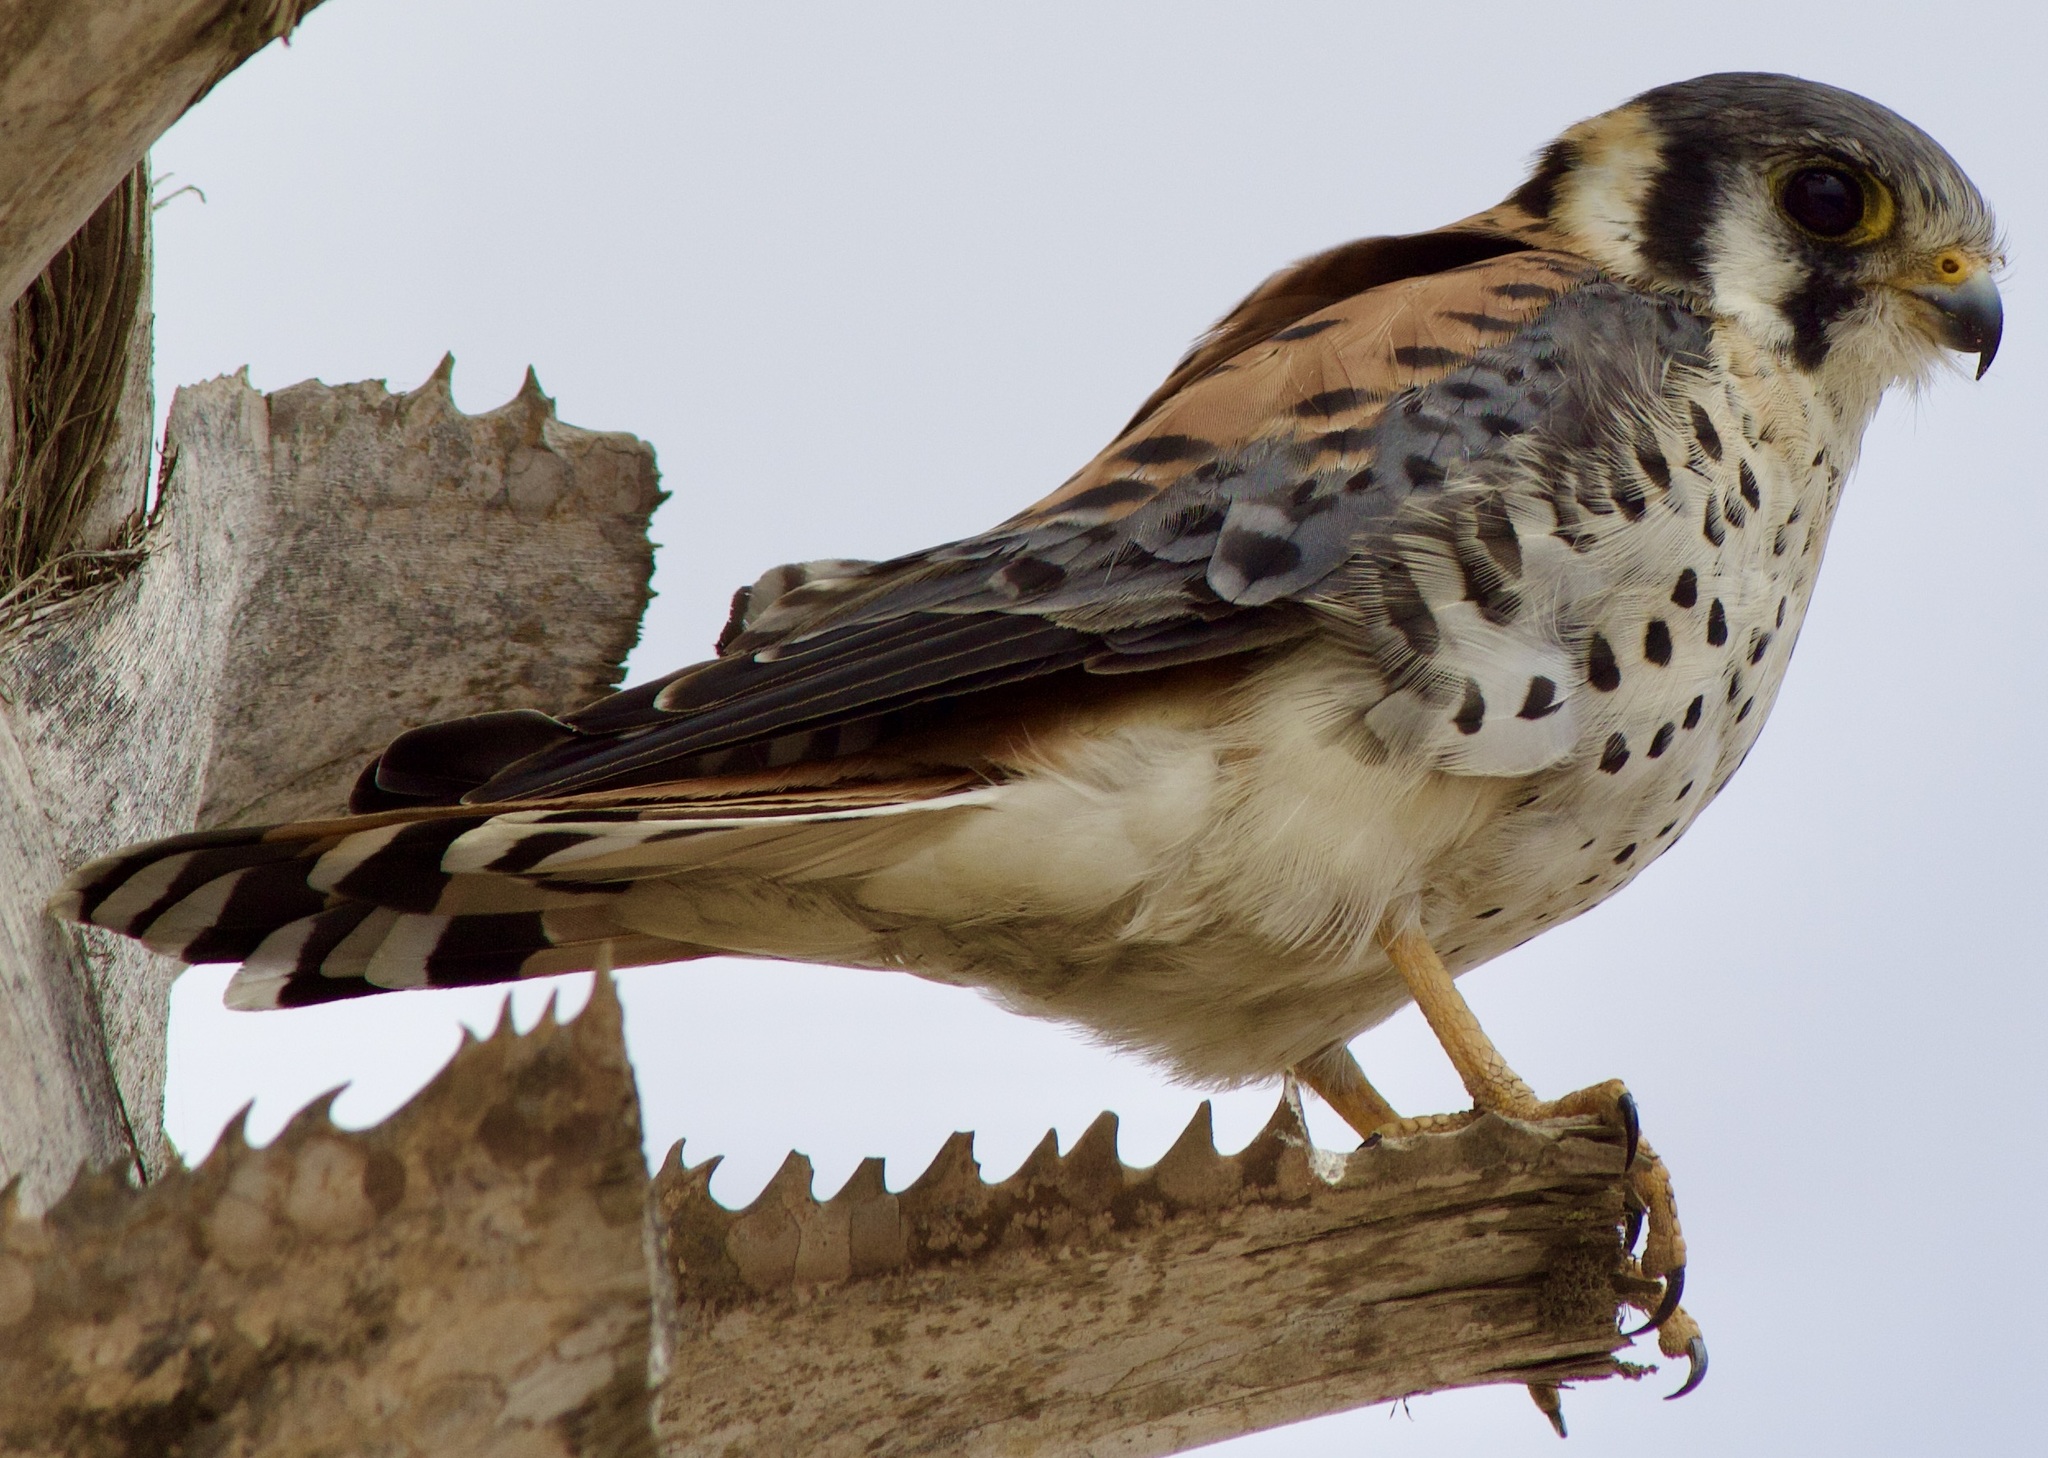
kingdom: Animalia
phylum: Chordata
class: Aves
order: Falconiformes
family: Falconidae
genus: Falco
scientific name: Falco sparverius
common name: American kestrel
